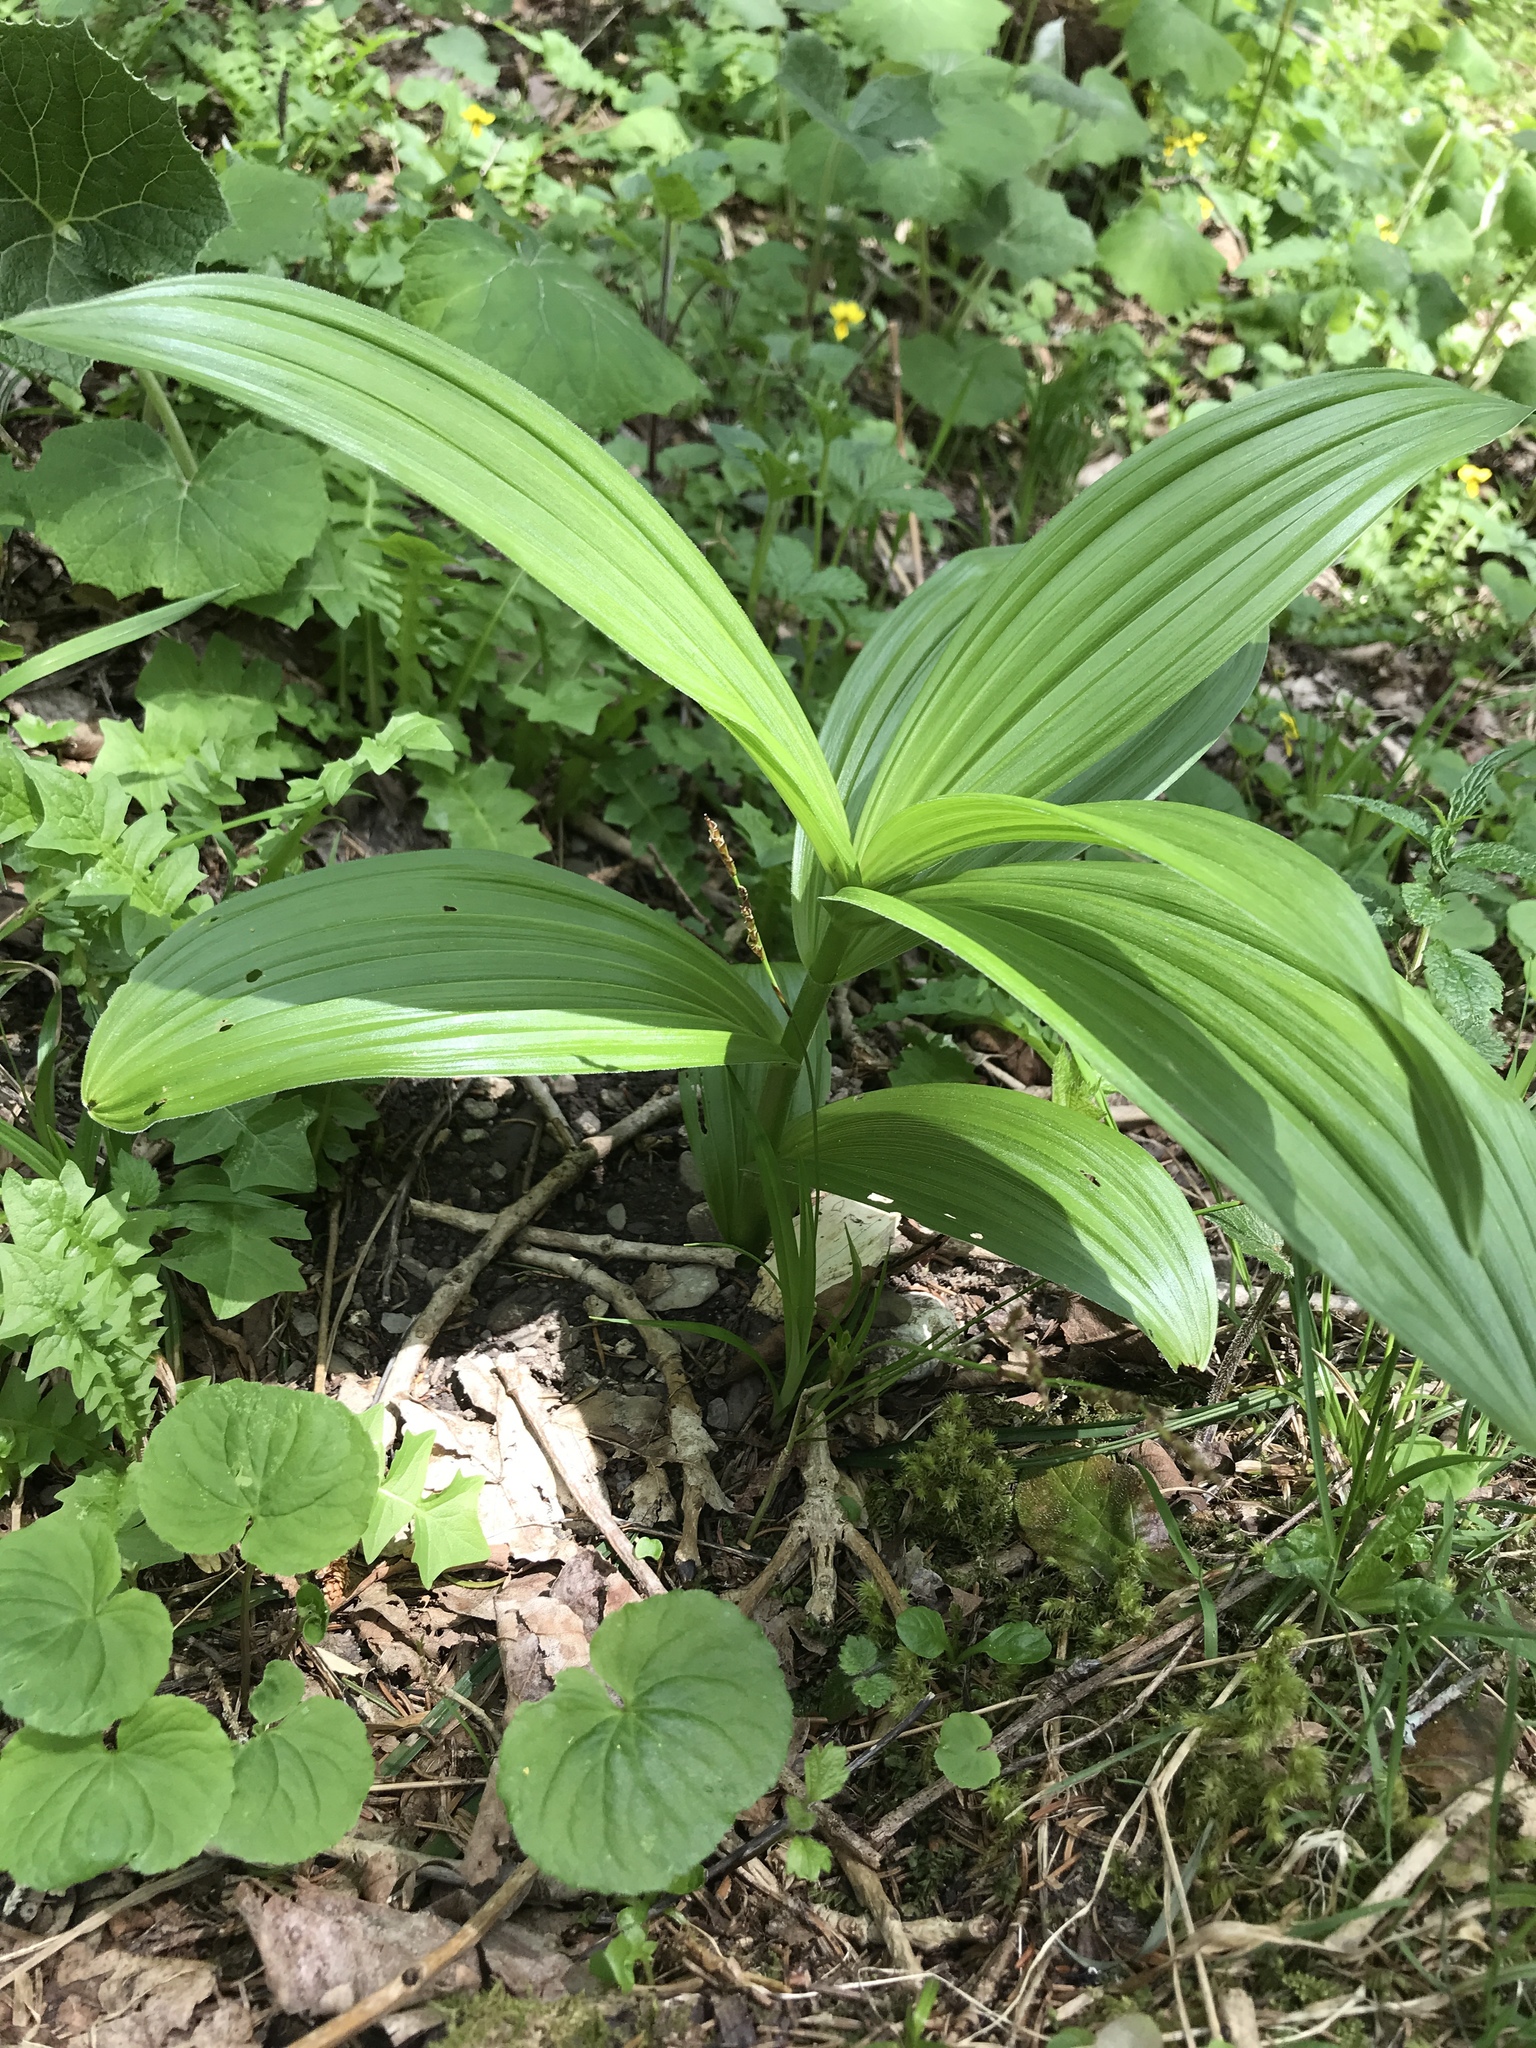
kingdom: Plantae
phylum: Tracheophyta
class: Liliopsida
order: Liliales
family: Melanthiaceae
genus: Veratrum
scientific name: Veratrum album
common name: White veratrum
